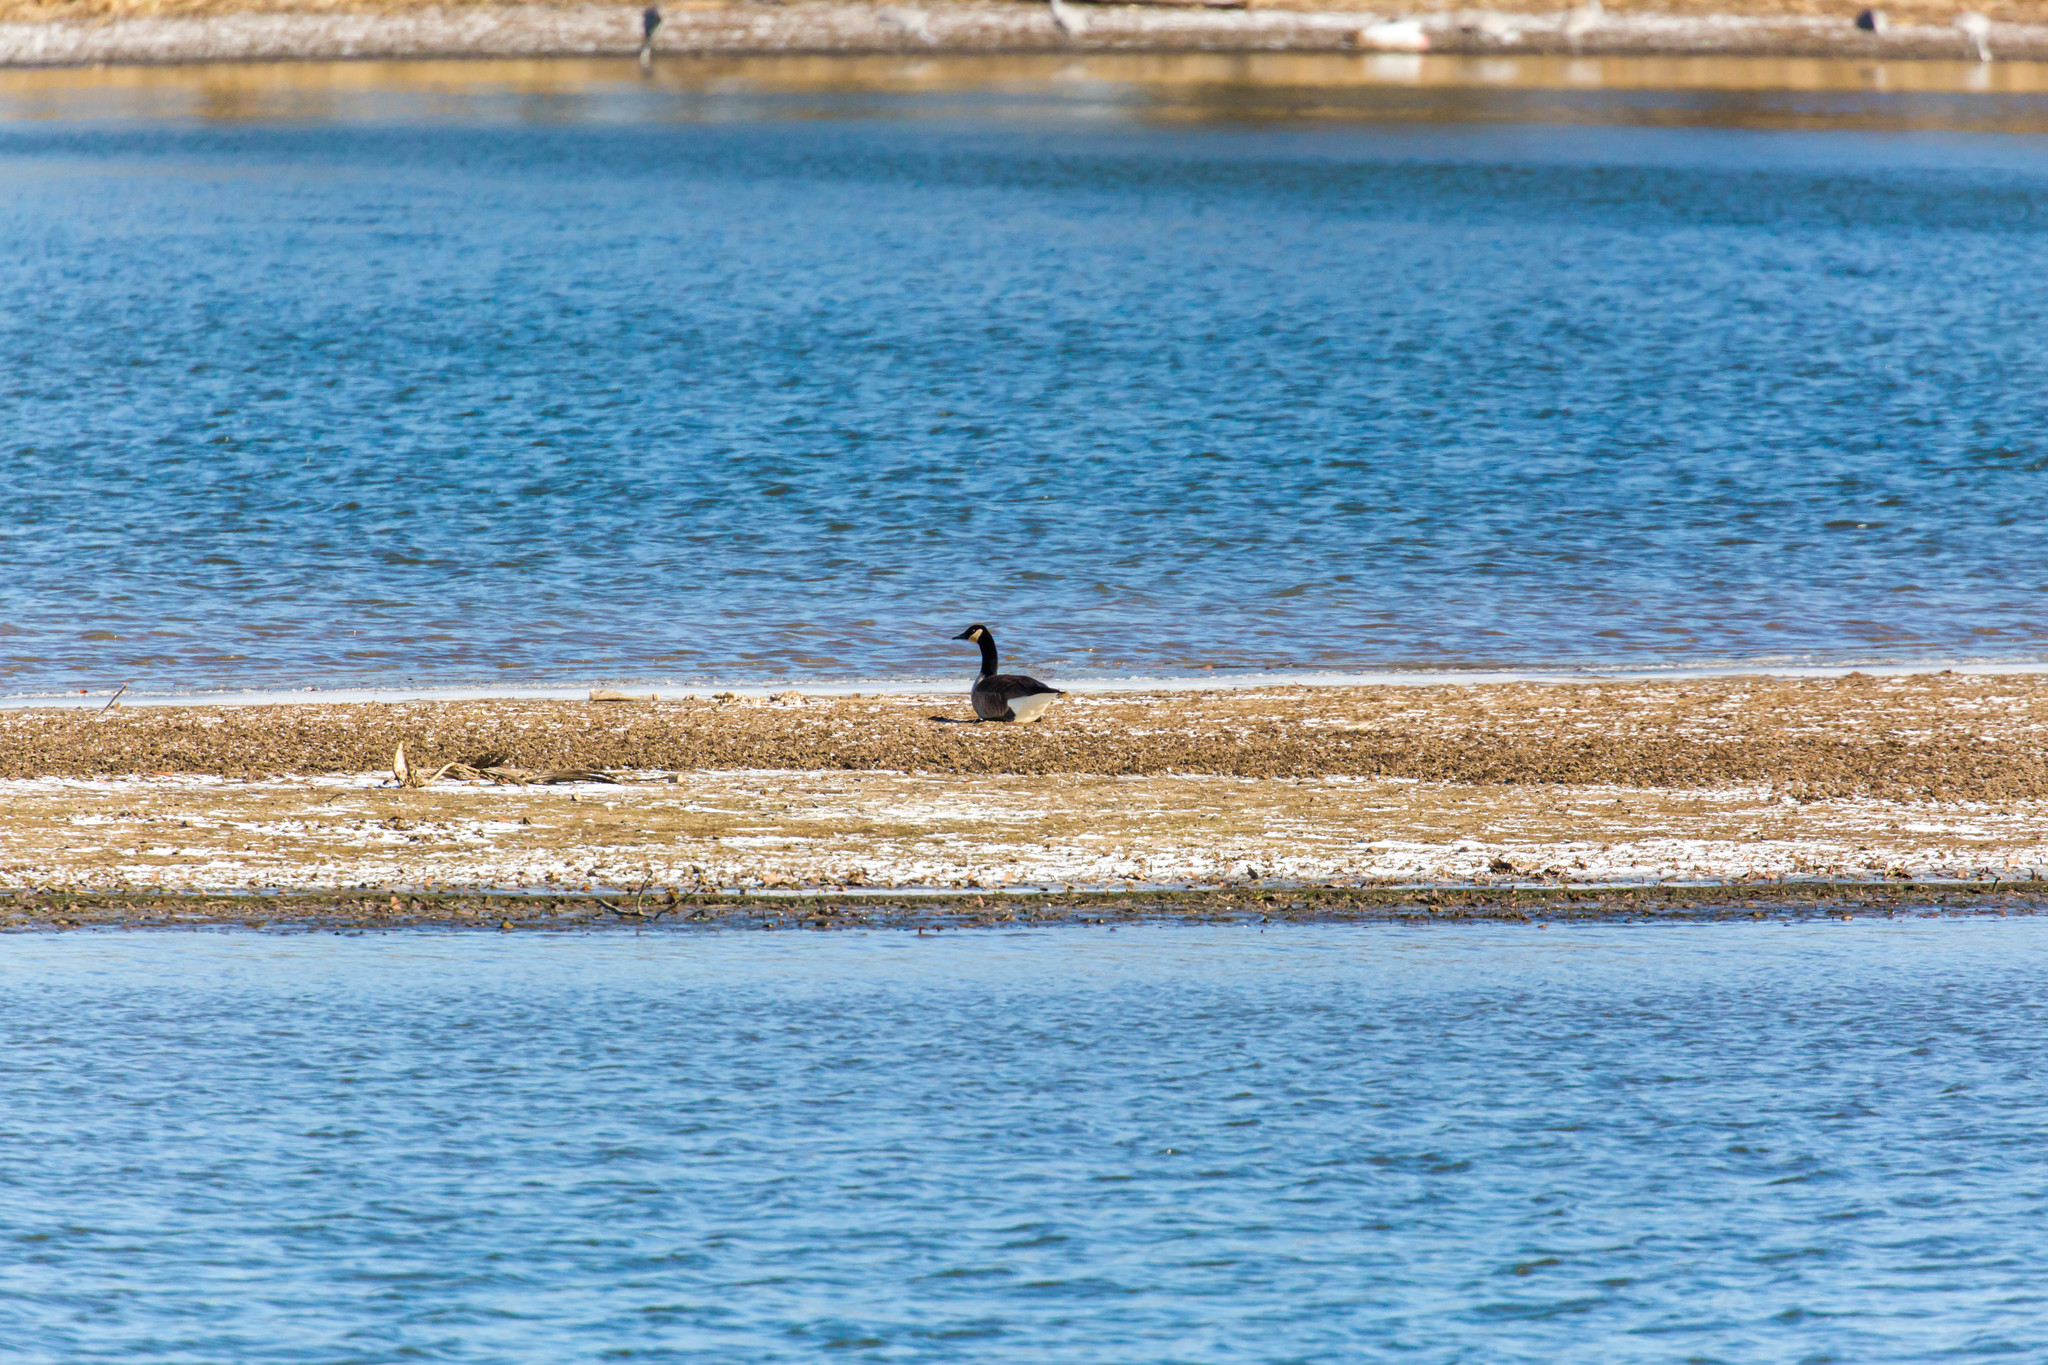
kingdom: Animalia
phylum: Chordata
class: Aves
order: Anseriformes
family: Anatidae
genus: Branta
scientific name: Branta canadensis
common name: Canada goose
